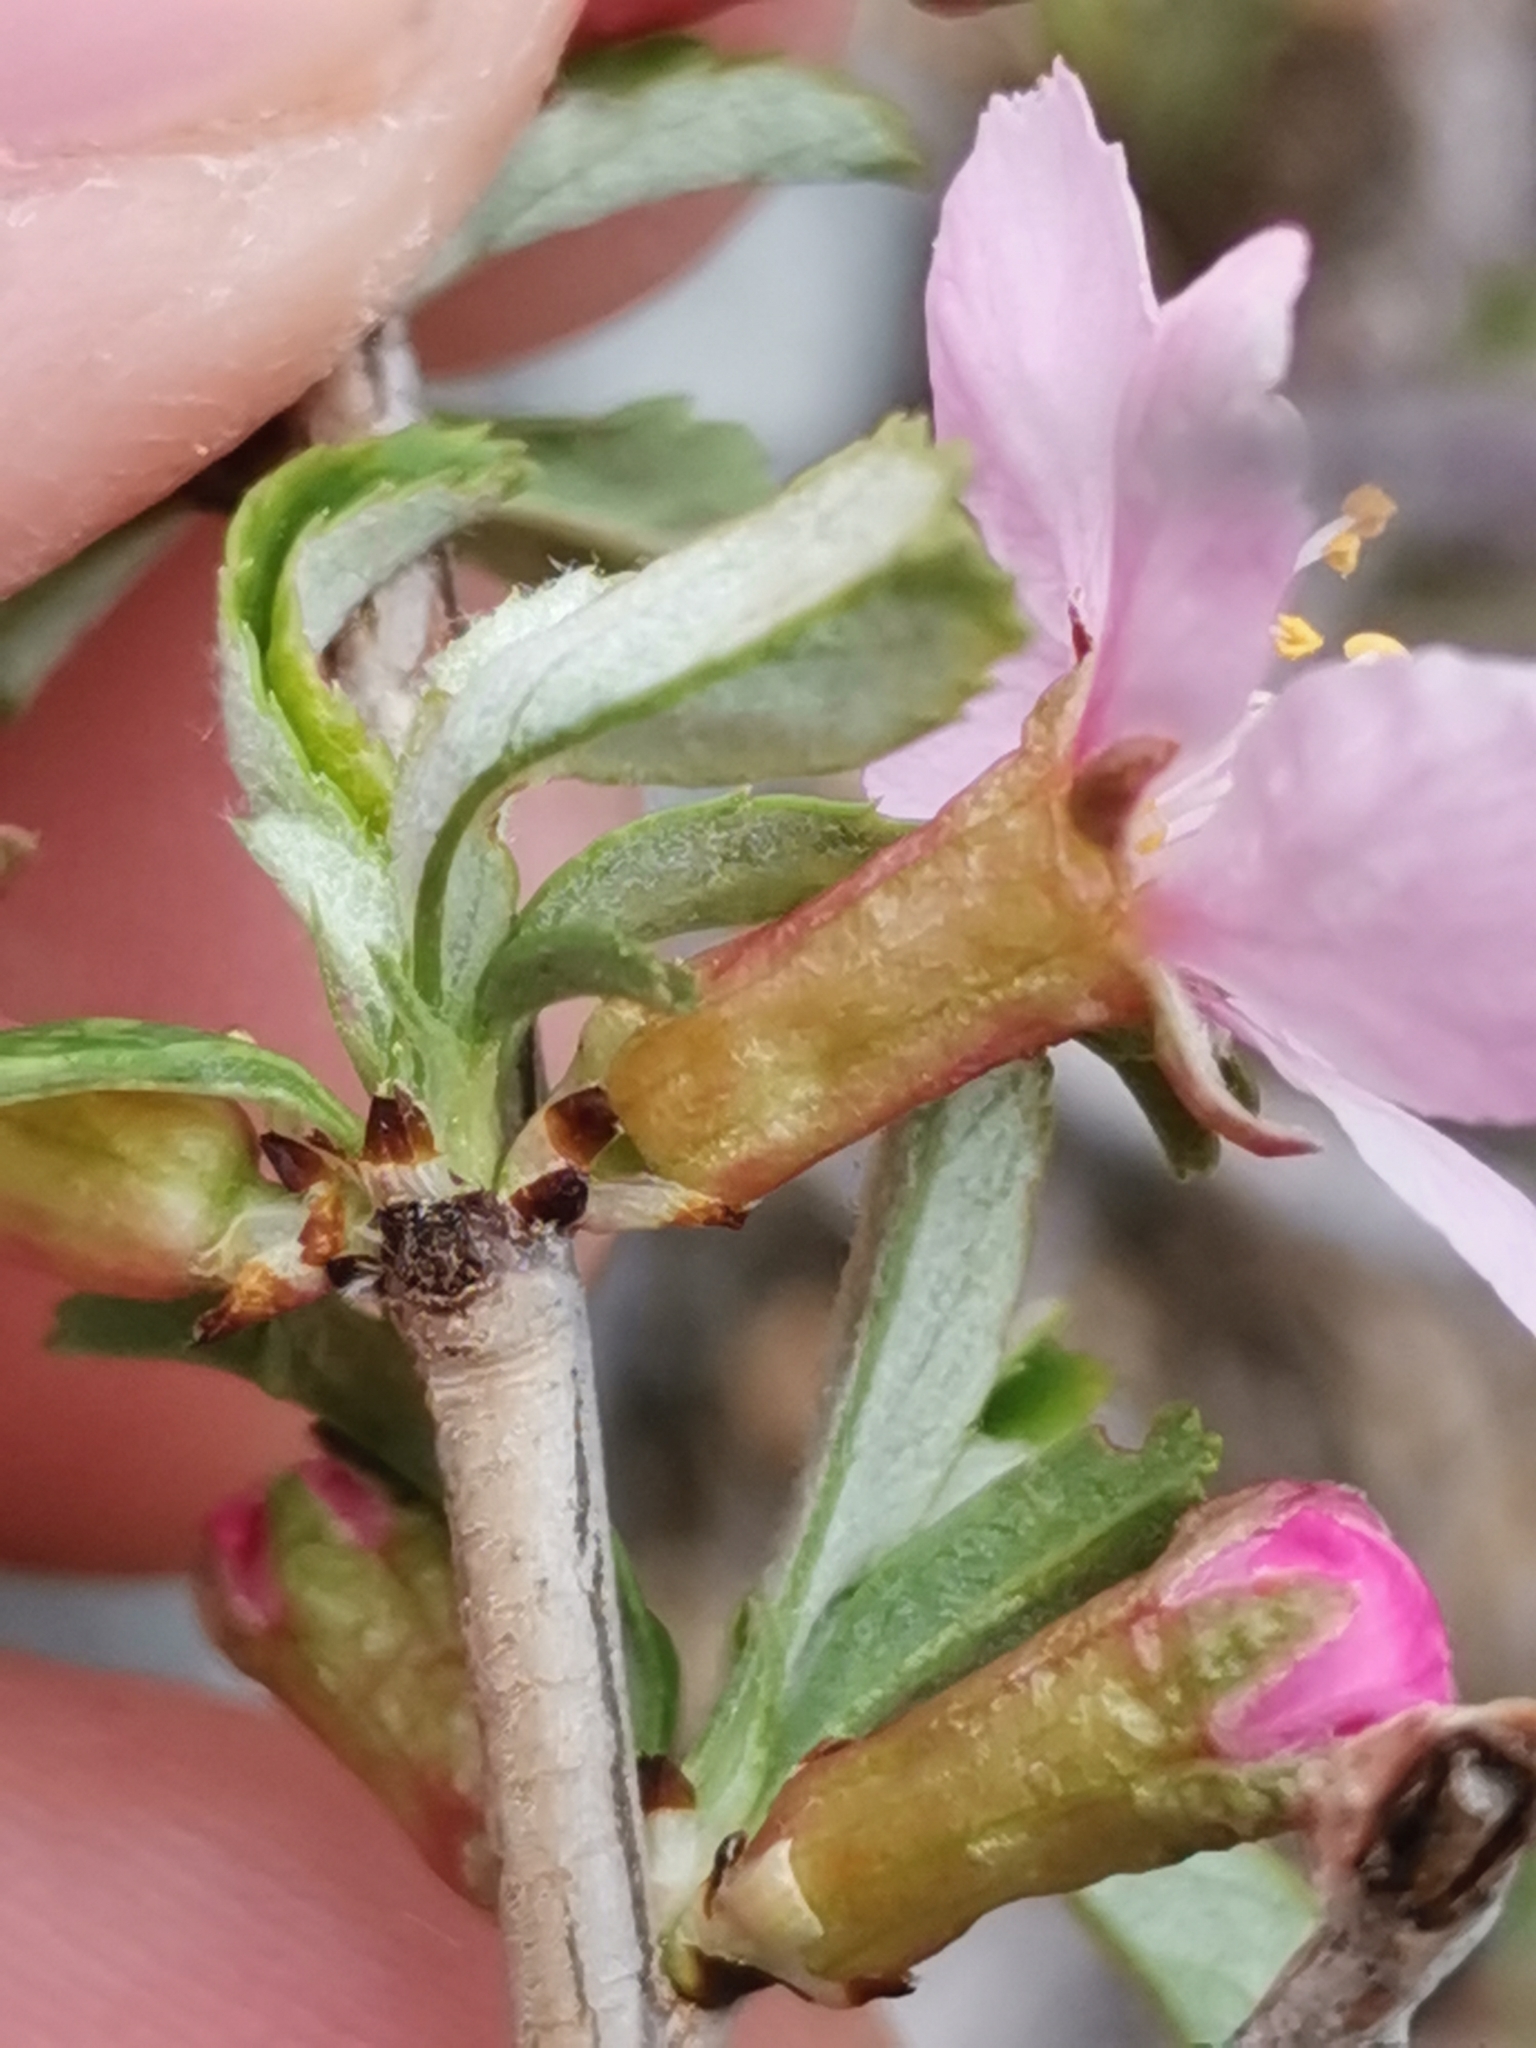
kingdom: Plantae
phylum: Tracheophyta
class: Magnoliopsida
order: Rosales
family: Rosaceae
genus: Prunus
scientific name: Prunus prostrata
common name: Mountain cherry
